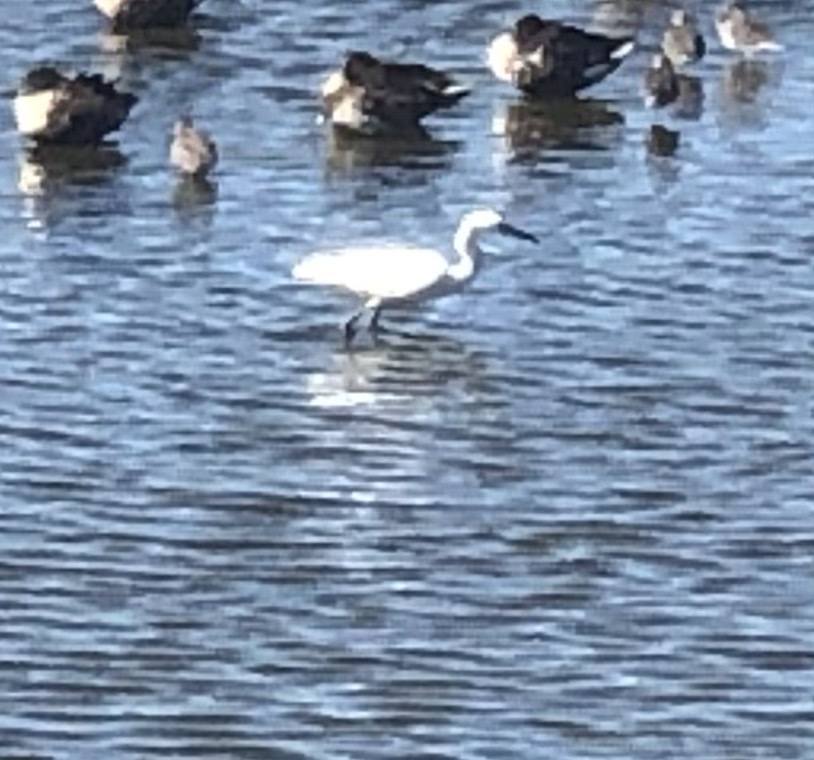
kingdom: Animalia
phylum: Chordata
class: Aves
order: Pelecaniformes
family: Ardeidae
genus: Egretta
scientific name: Egretta thula
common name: Snowy egret
